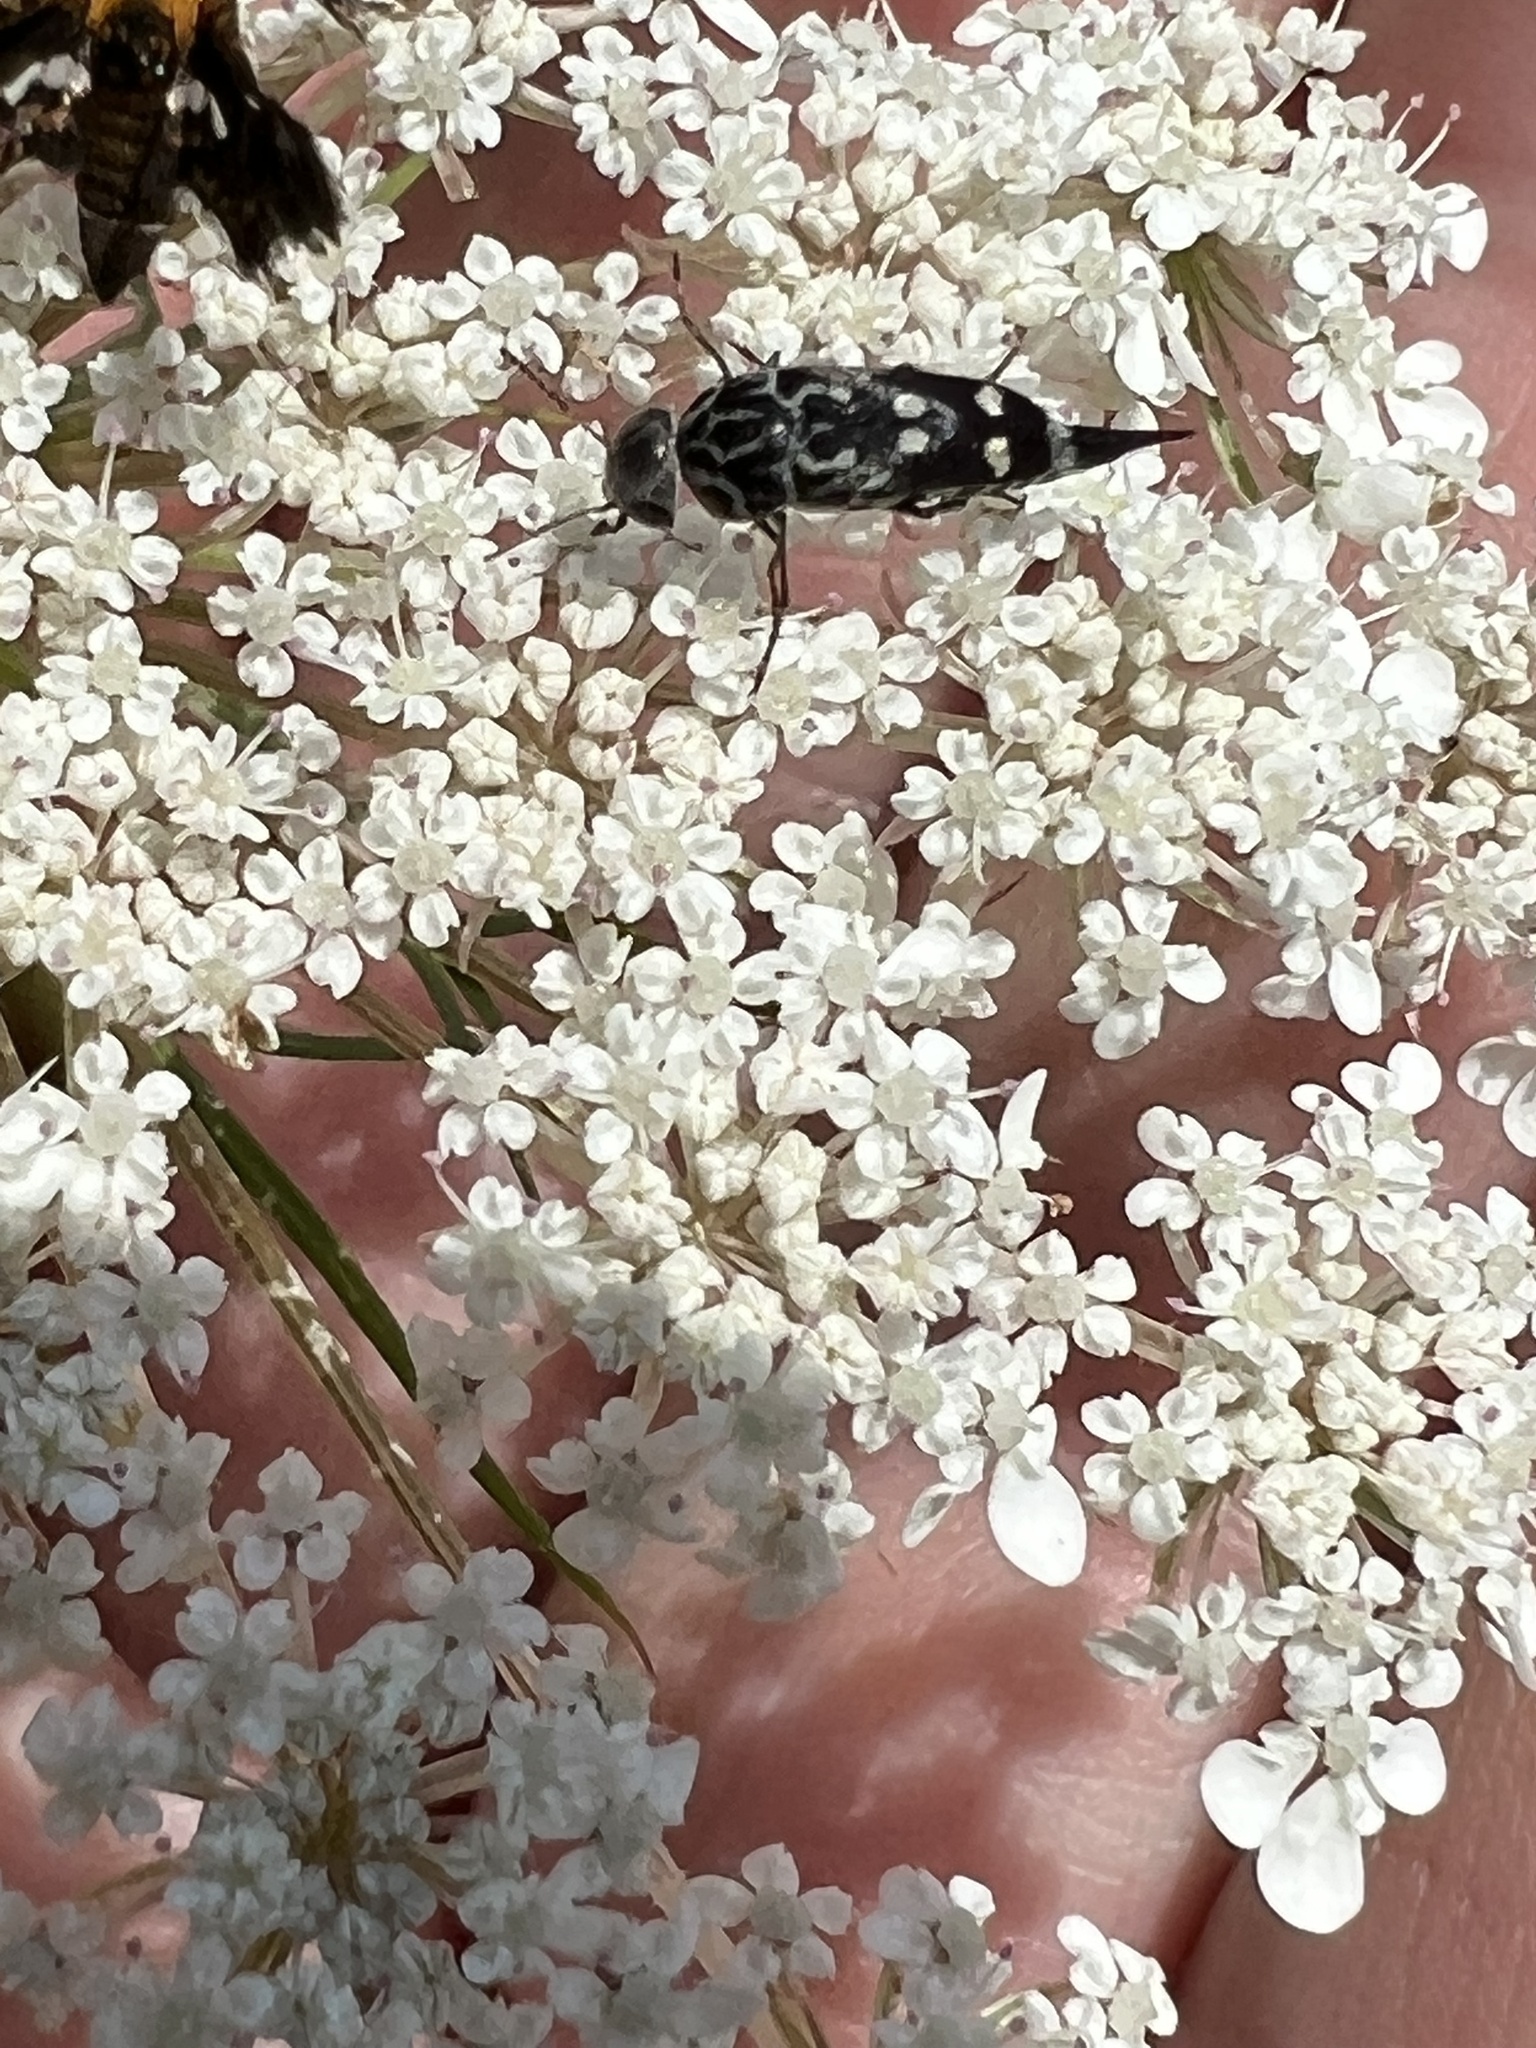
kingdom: Animalia
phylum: Arthropoda
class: Insecta
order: Coleoptera
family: Mordellidae
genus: Hoshihananomia
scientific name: Hoshihananomia octopunctata
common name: Eight-spotted tumbling flower beetle
